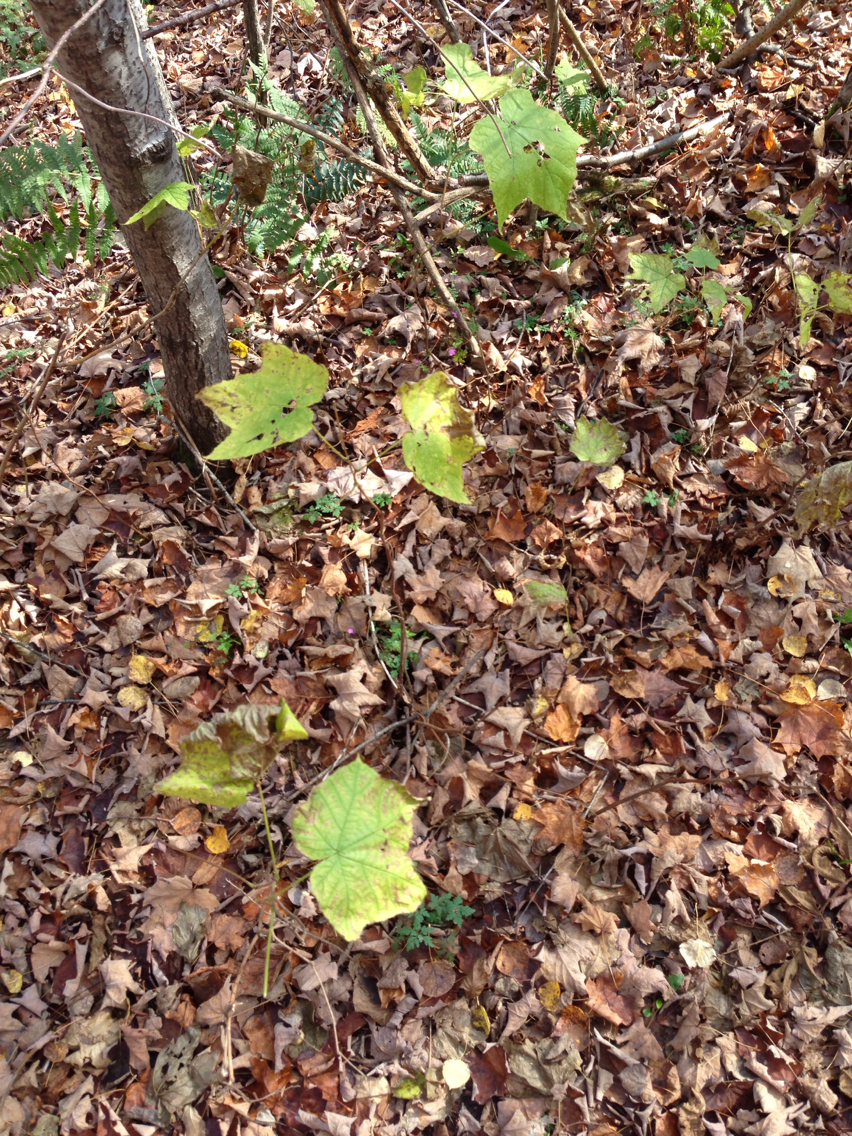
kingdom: Plantae
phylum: Tracheophyta
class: Magnoliopsida
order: Rosales
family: Rosaceae
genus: Rubus
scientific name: Rubus odoratus
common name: Purple-flowered raspberry
